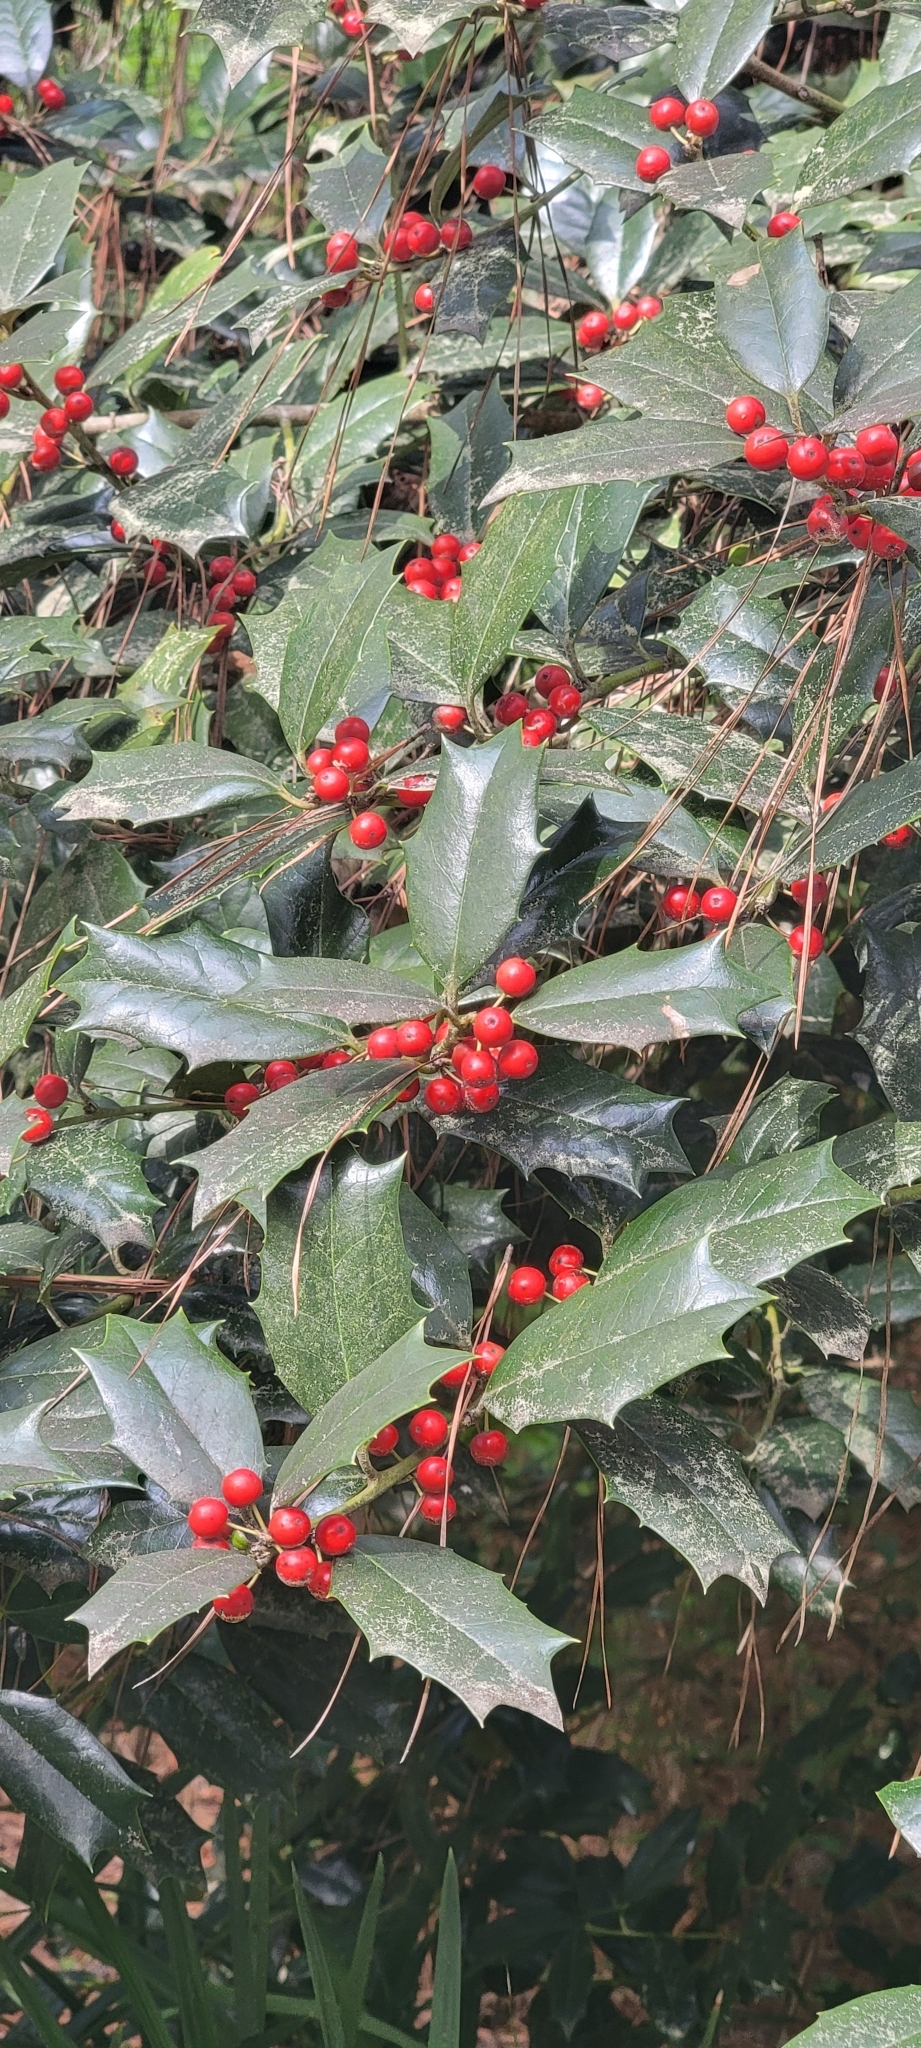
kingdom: Plantae
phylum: Tracheophyta
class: Magnoliopsida
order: Aquifoliales
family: Aquifoliaceae
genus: Ilex
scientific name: Ilex opaca
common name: American holly
